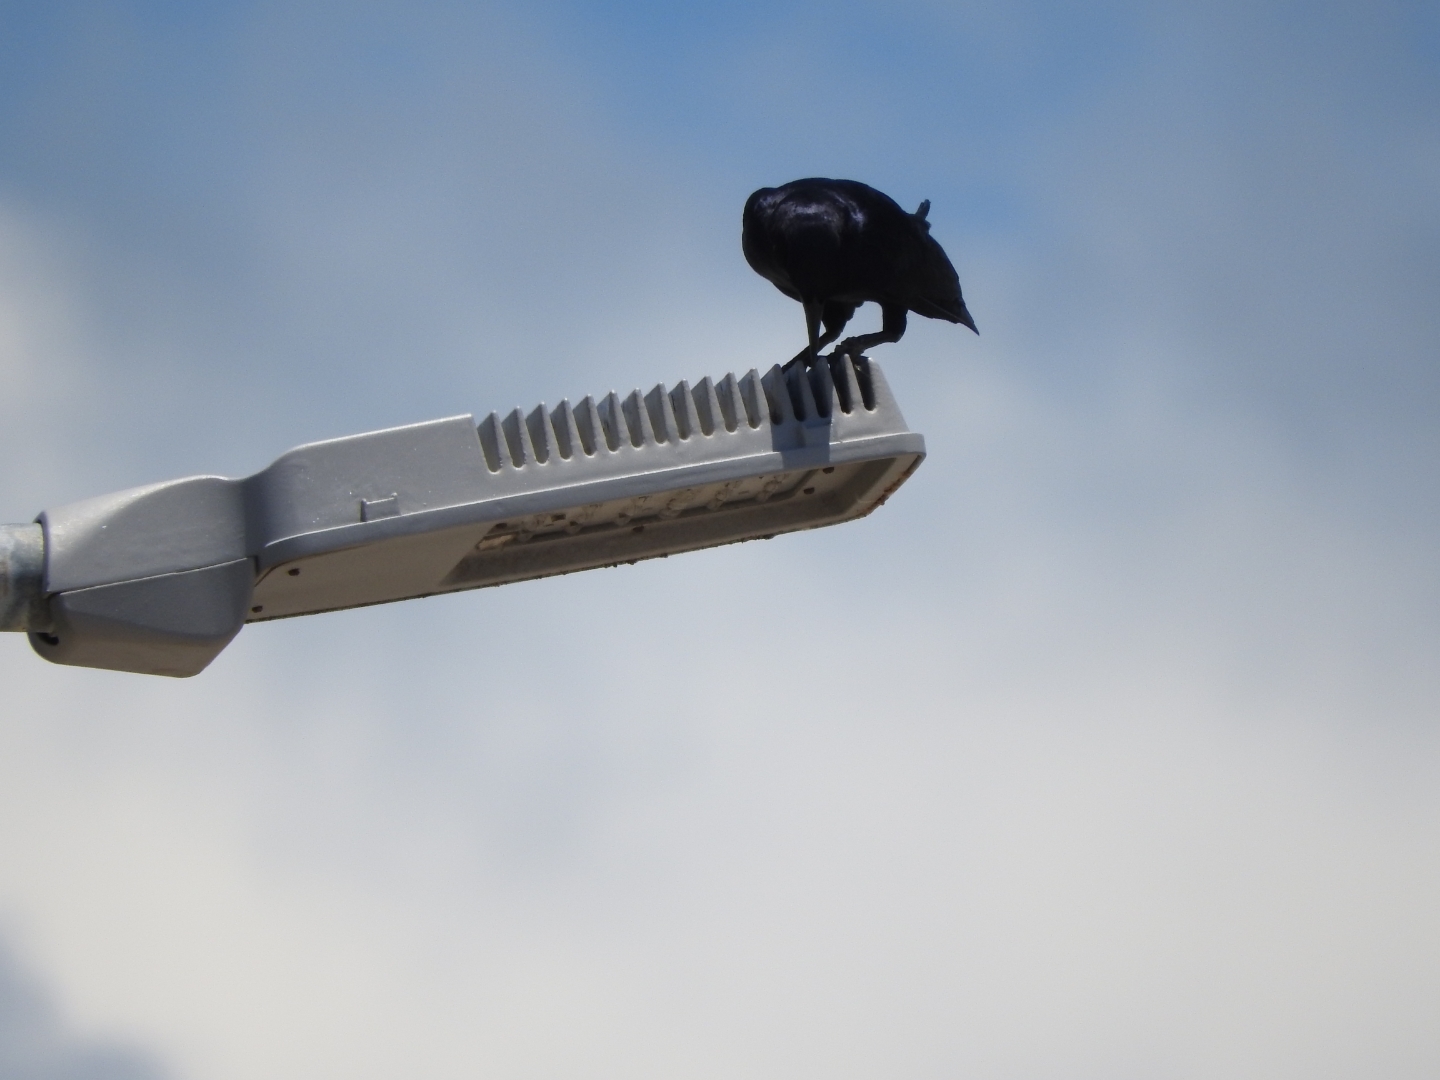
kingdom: Animalia
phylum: Chordata
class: Aves
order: Passeriformes
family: Icteridae
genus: Quiscalus
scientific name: Quiscalus mexicanus
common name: Great-tailed grackle
